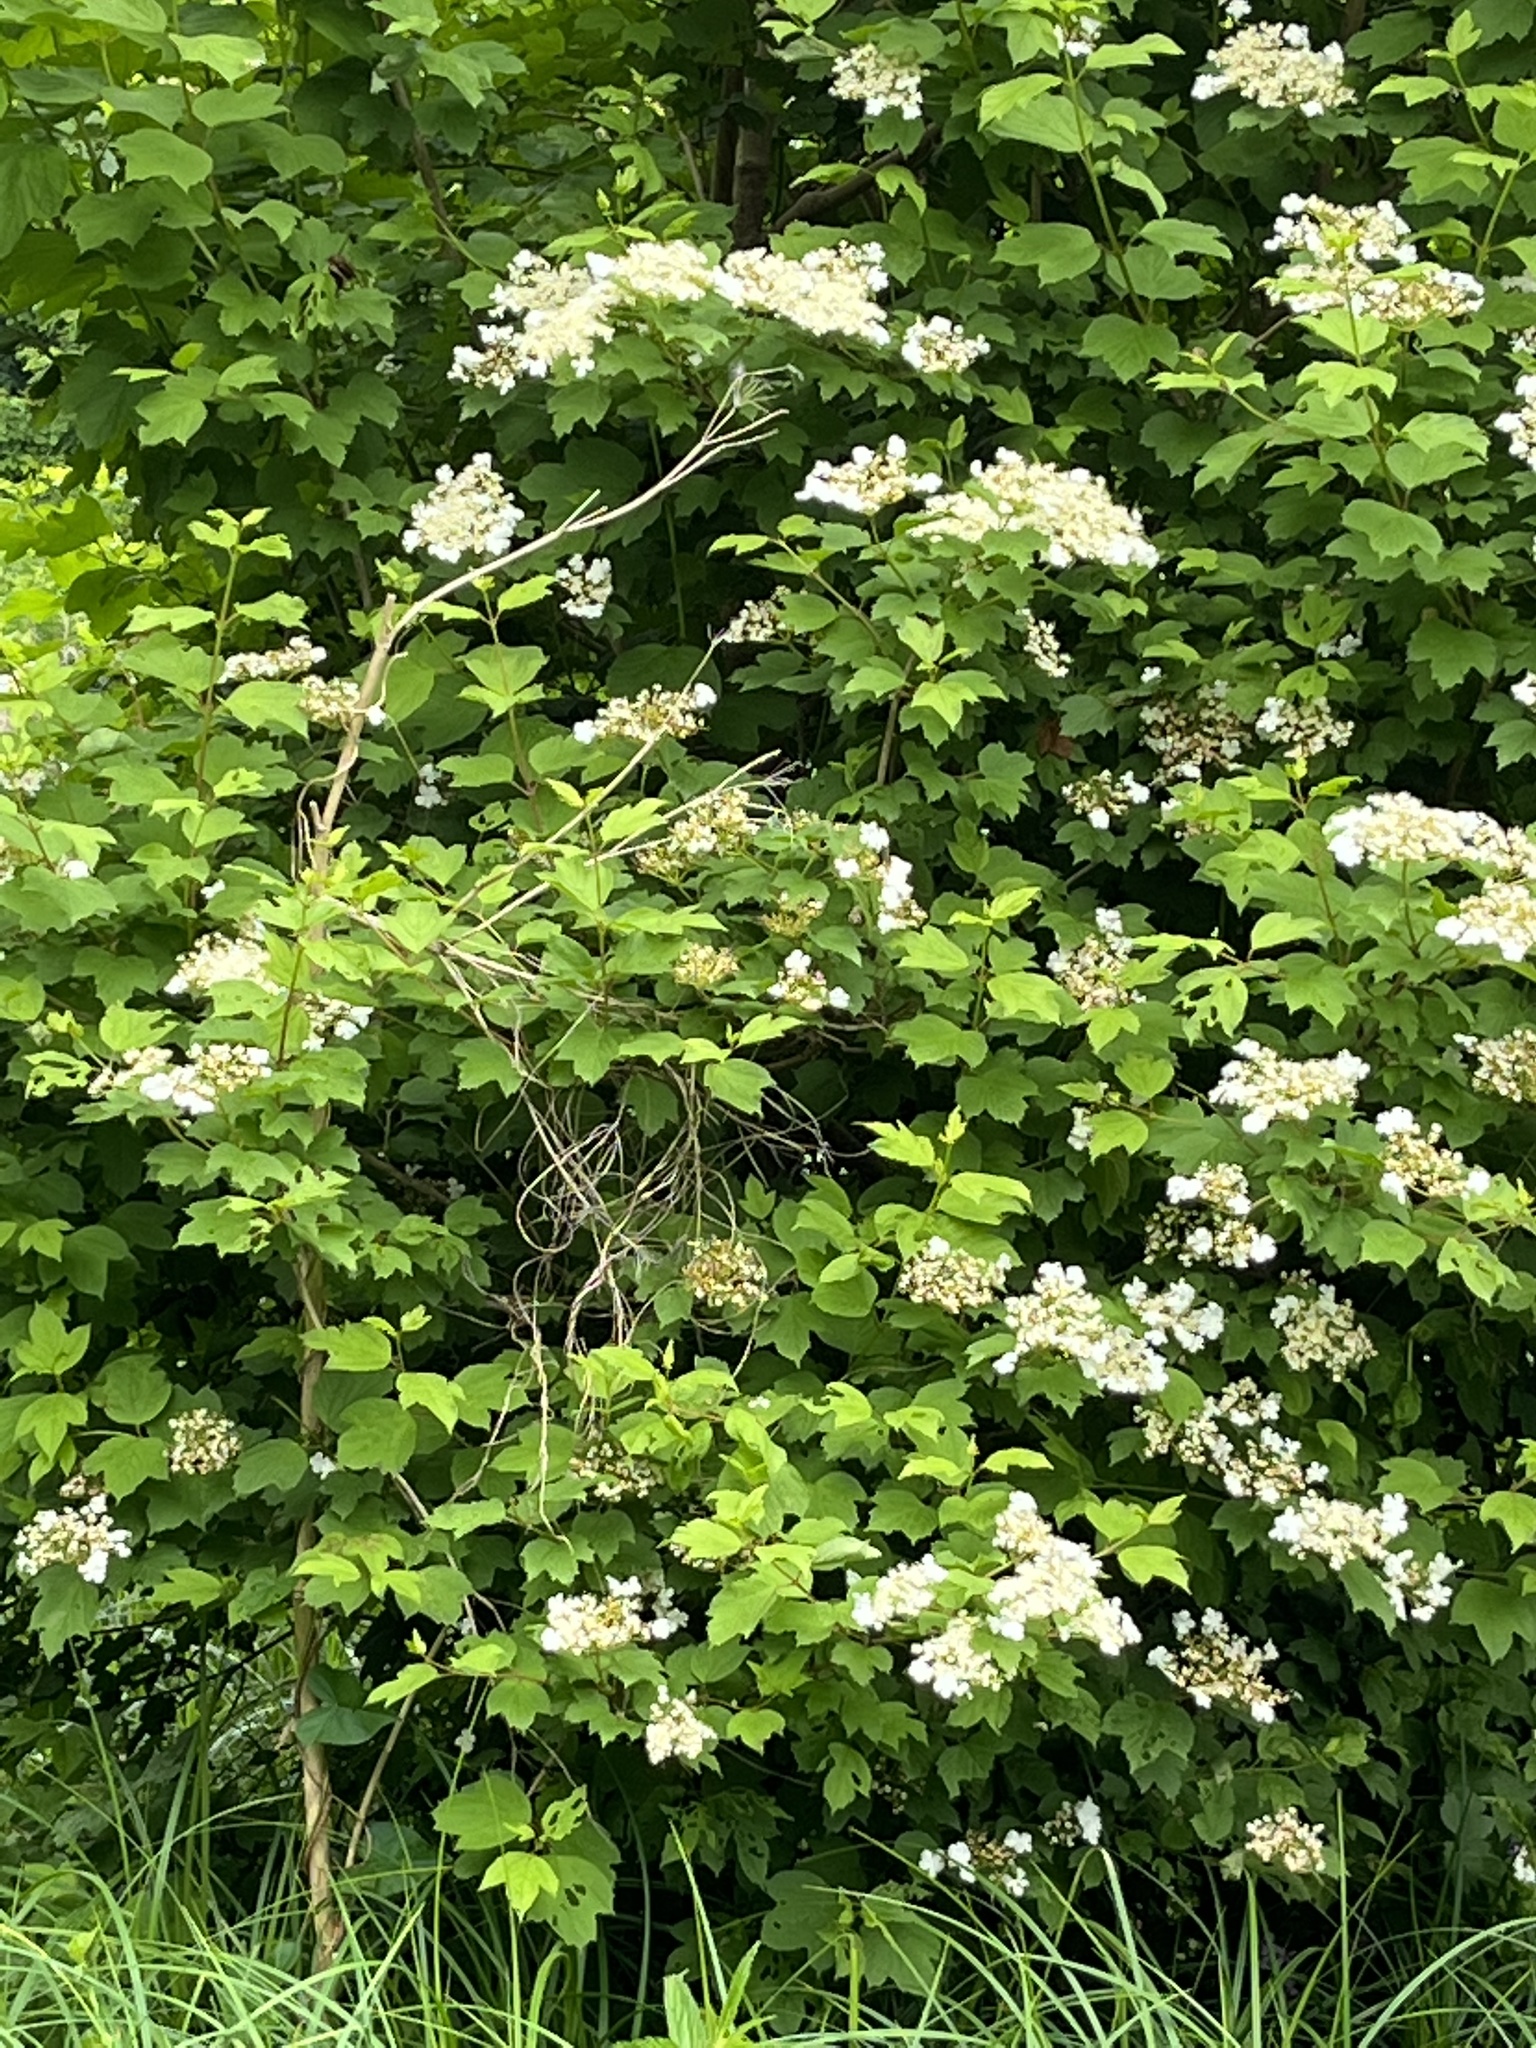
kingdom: Plantae
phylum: Tracheophyta
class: Magnoliopsida
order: Dipsacales
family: Viburnaceae
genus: Viburnum
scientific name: Viburnum opulus
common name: Guelder-rose
